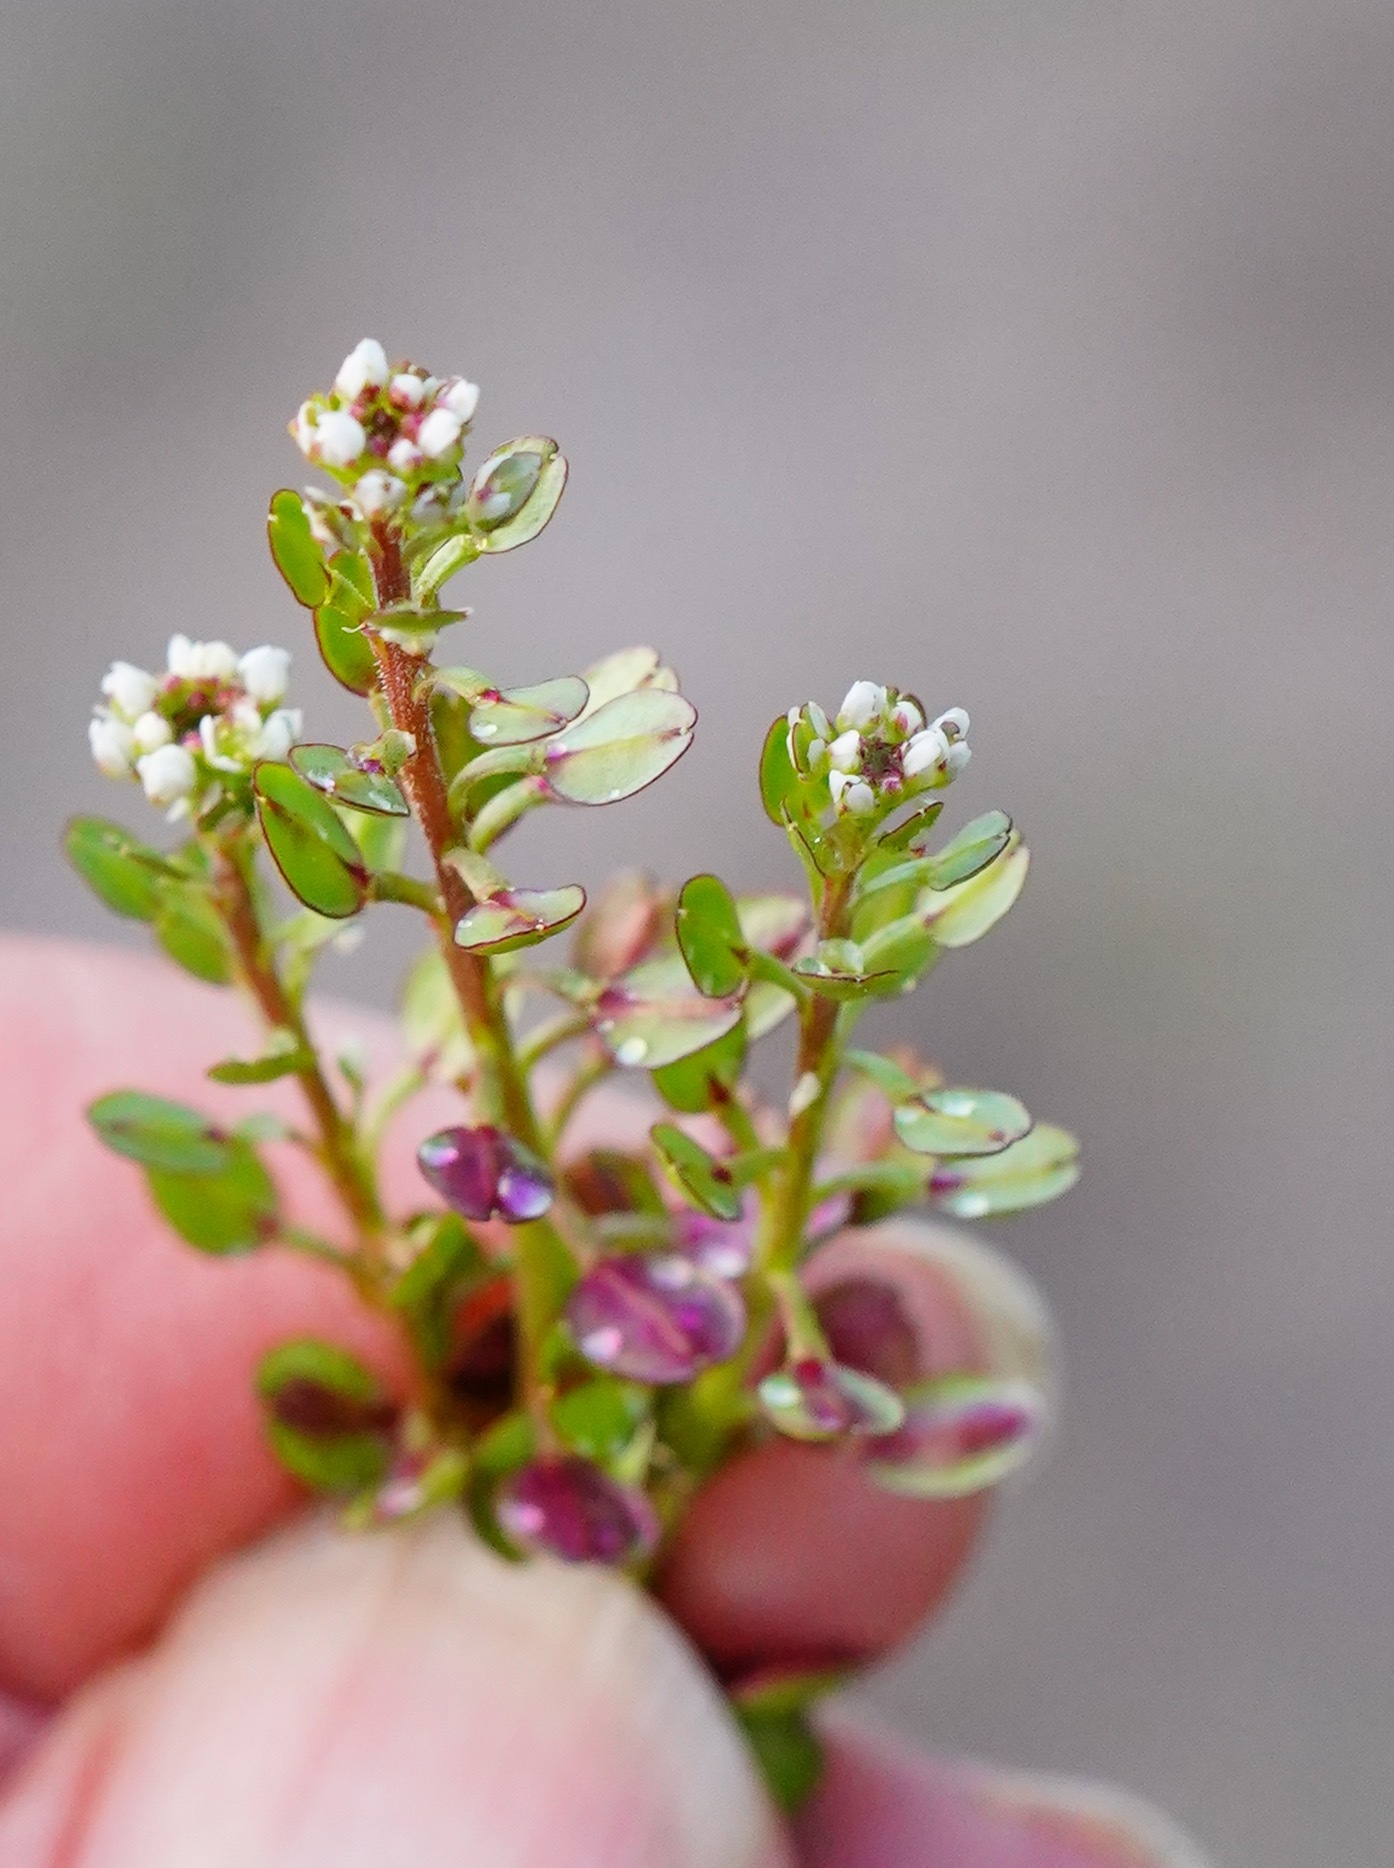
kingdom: Plantae
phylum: Tracheophyta
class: Magnoliopsida
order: Brassicales
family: Brassicaceae
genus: Lepidium
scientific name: Lepidium nitidum
